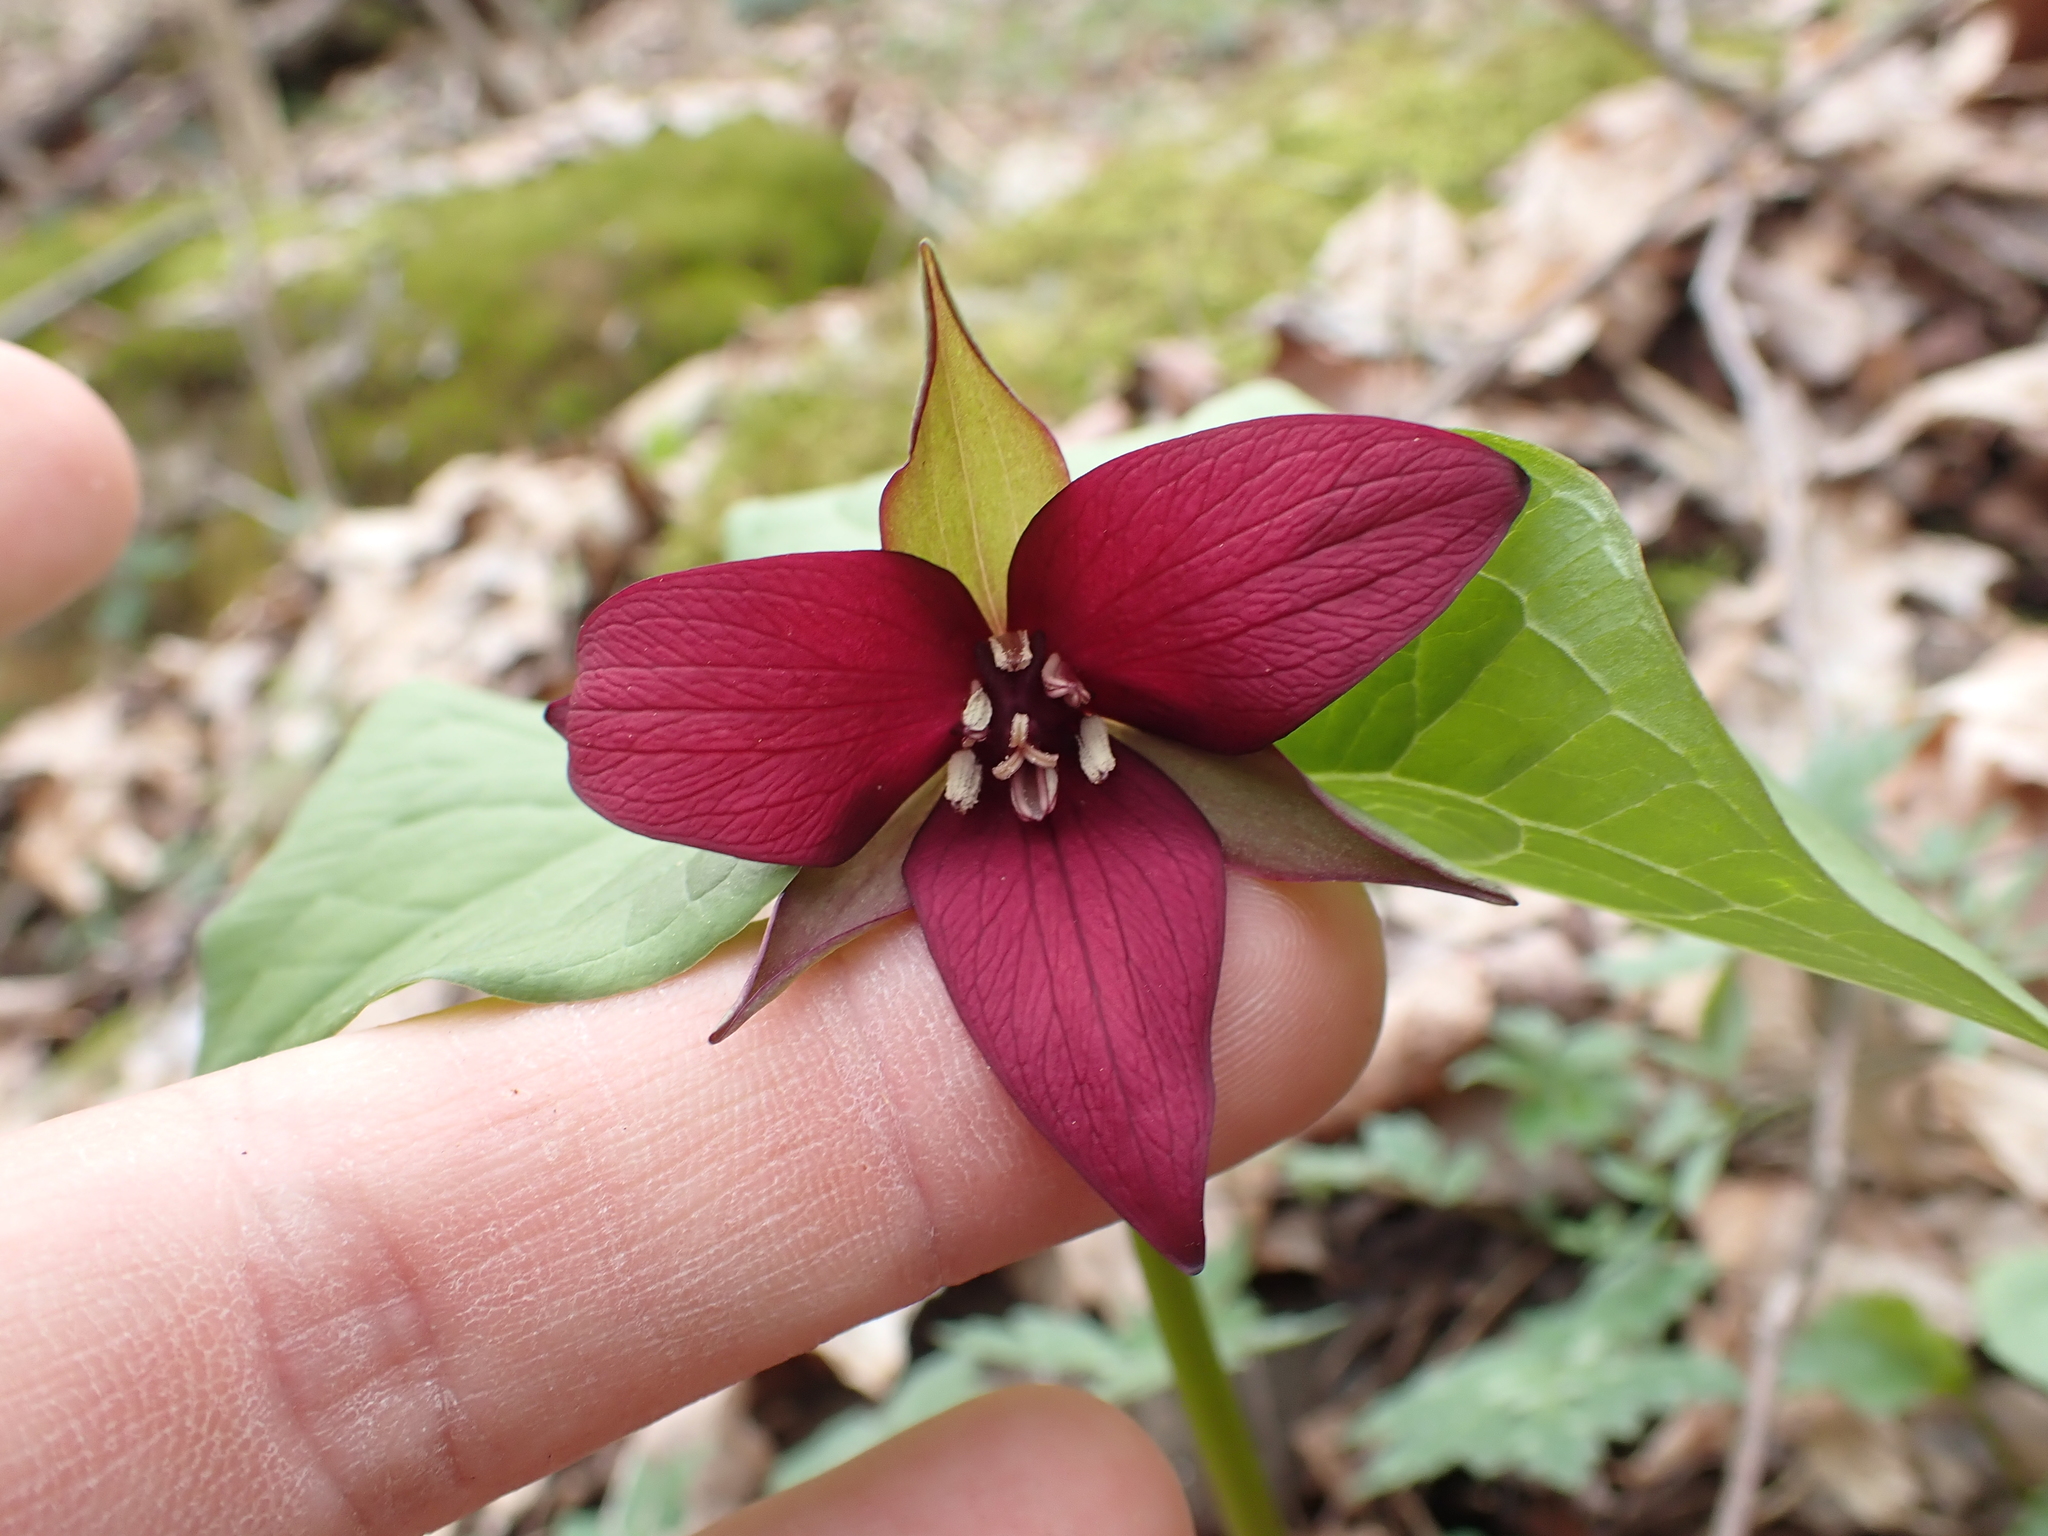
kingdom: Plantae
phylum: Tracheophyta
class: Liliopsida
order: Liliales
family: Melanthiaceae
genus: Trillium
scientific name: Trillium erectum
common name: Purple trillium
